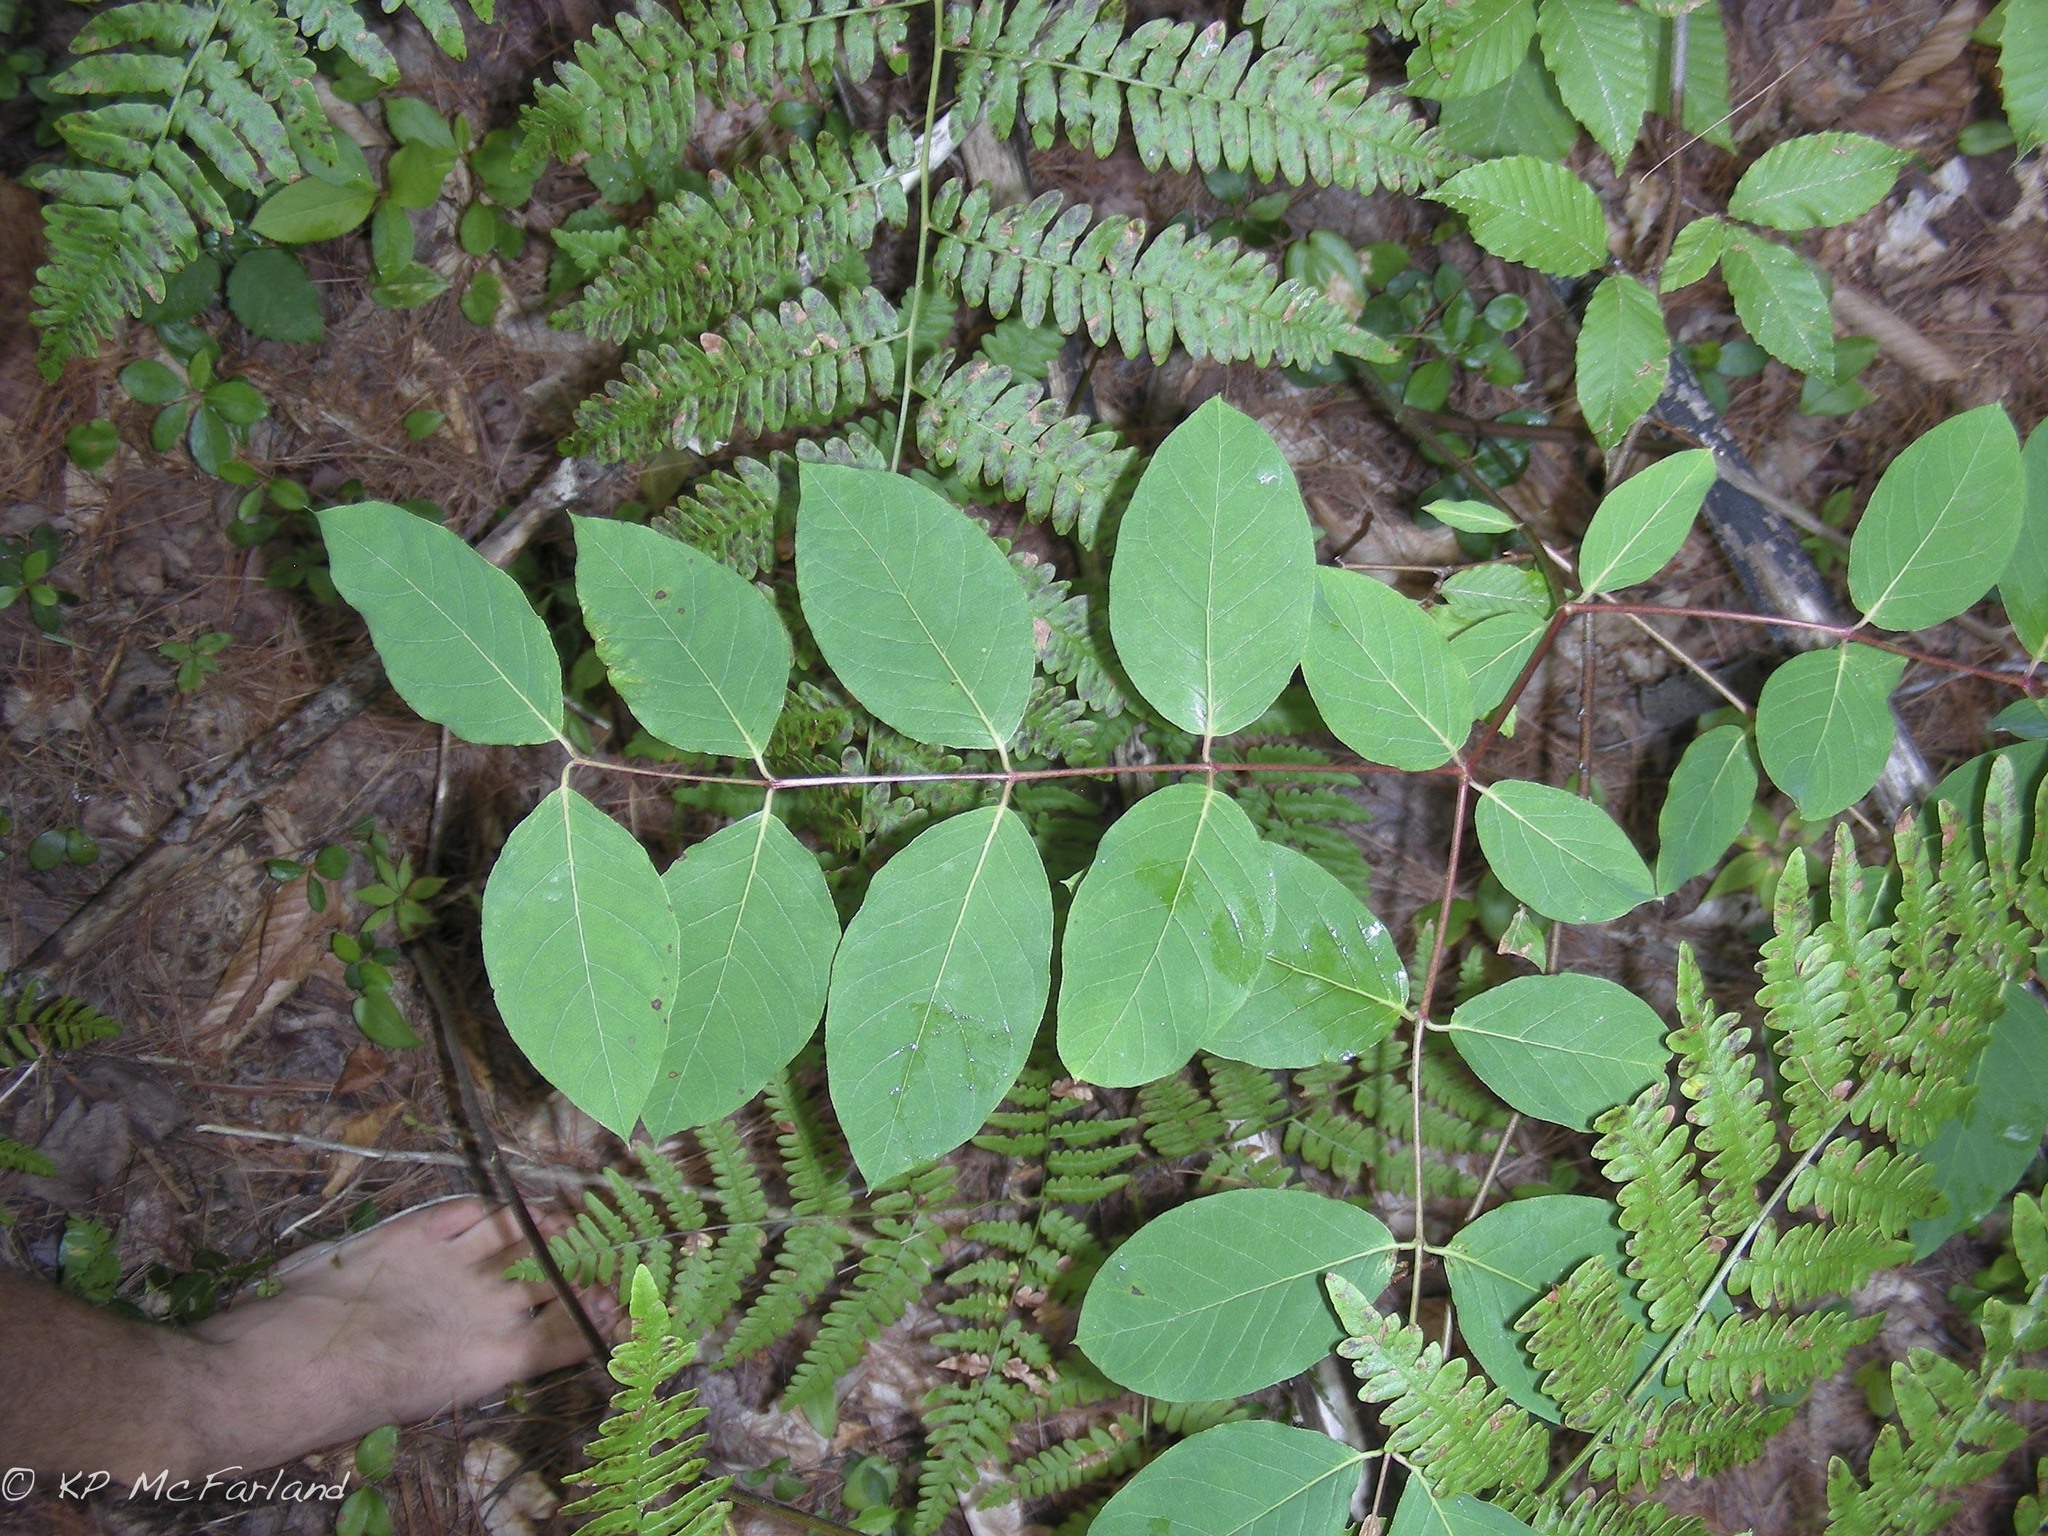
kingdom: Plantae
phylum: Tracheophyta
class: Magnoliopsida
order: Gentianales
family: Apocynaceae
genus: Apocynum
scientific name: Apocynum androsaemifolium
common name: Spreading dogbane
